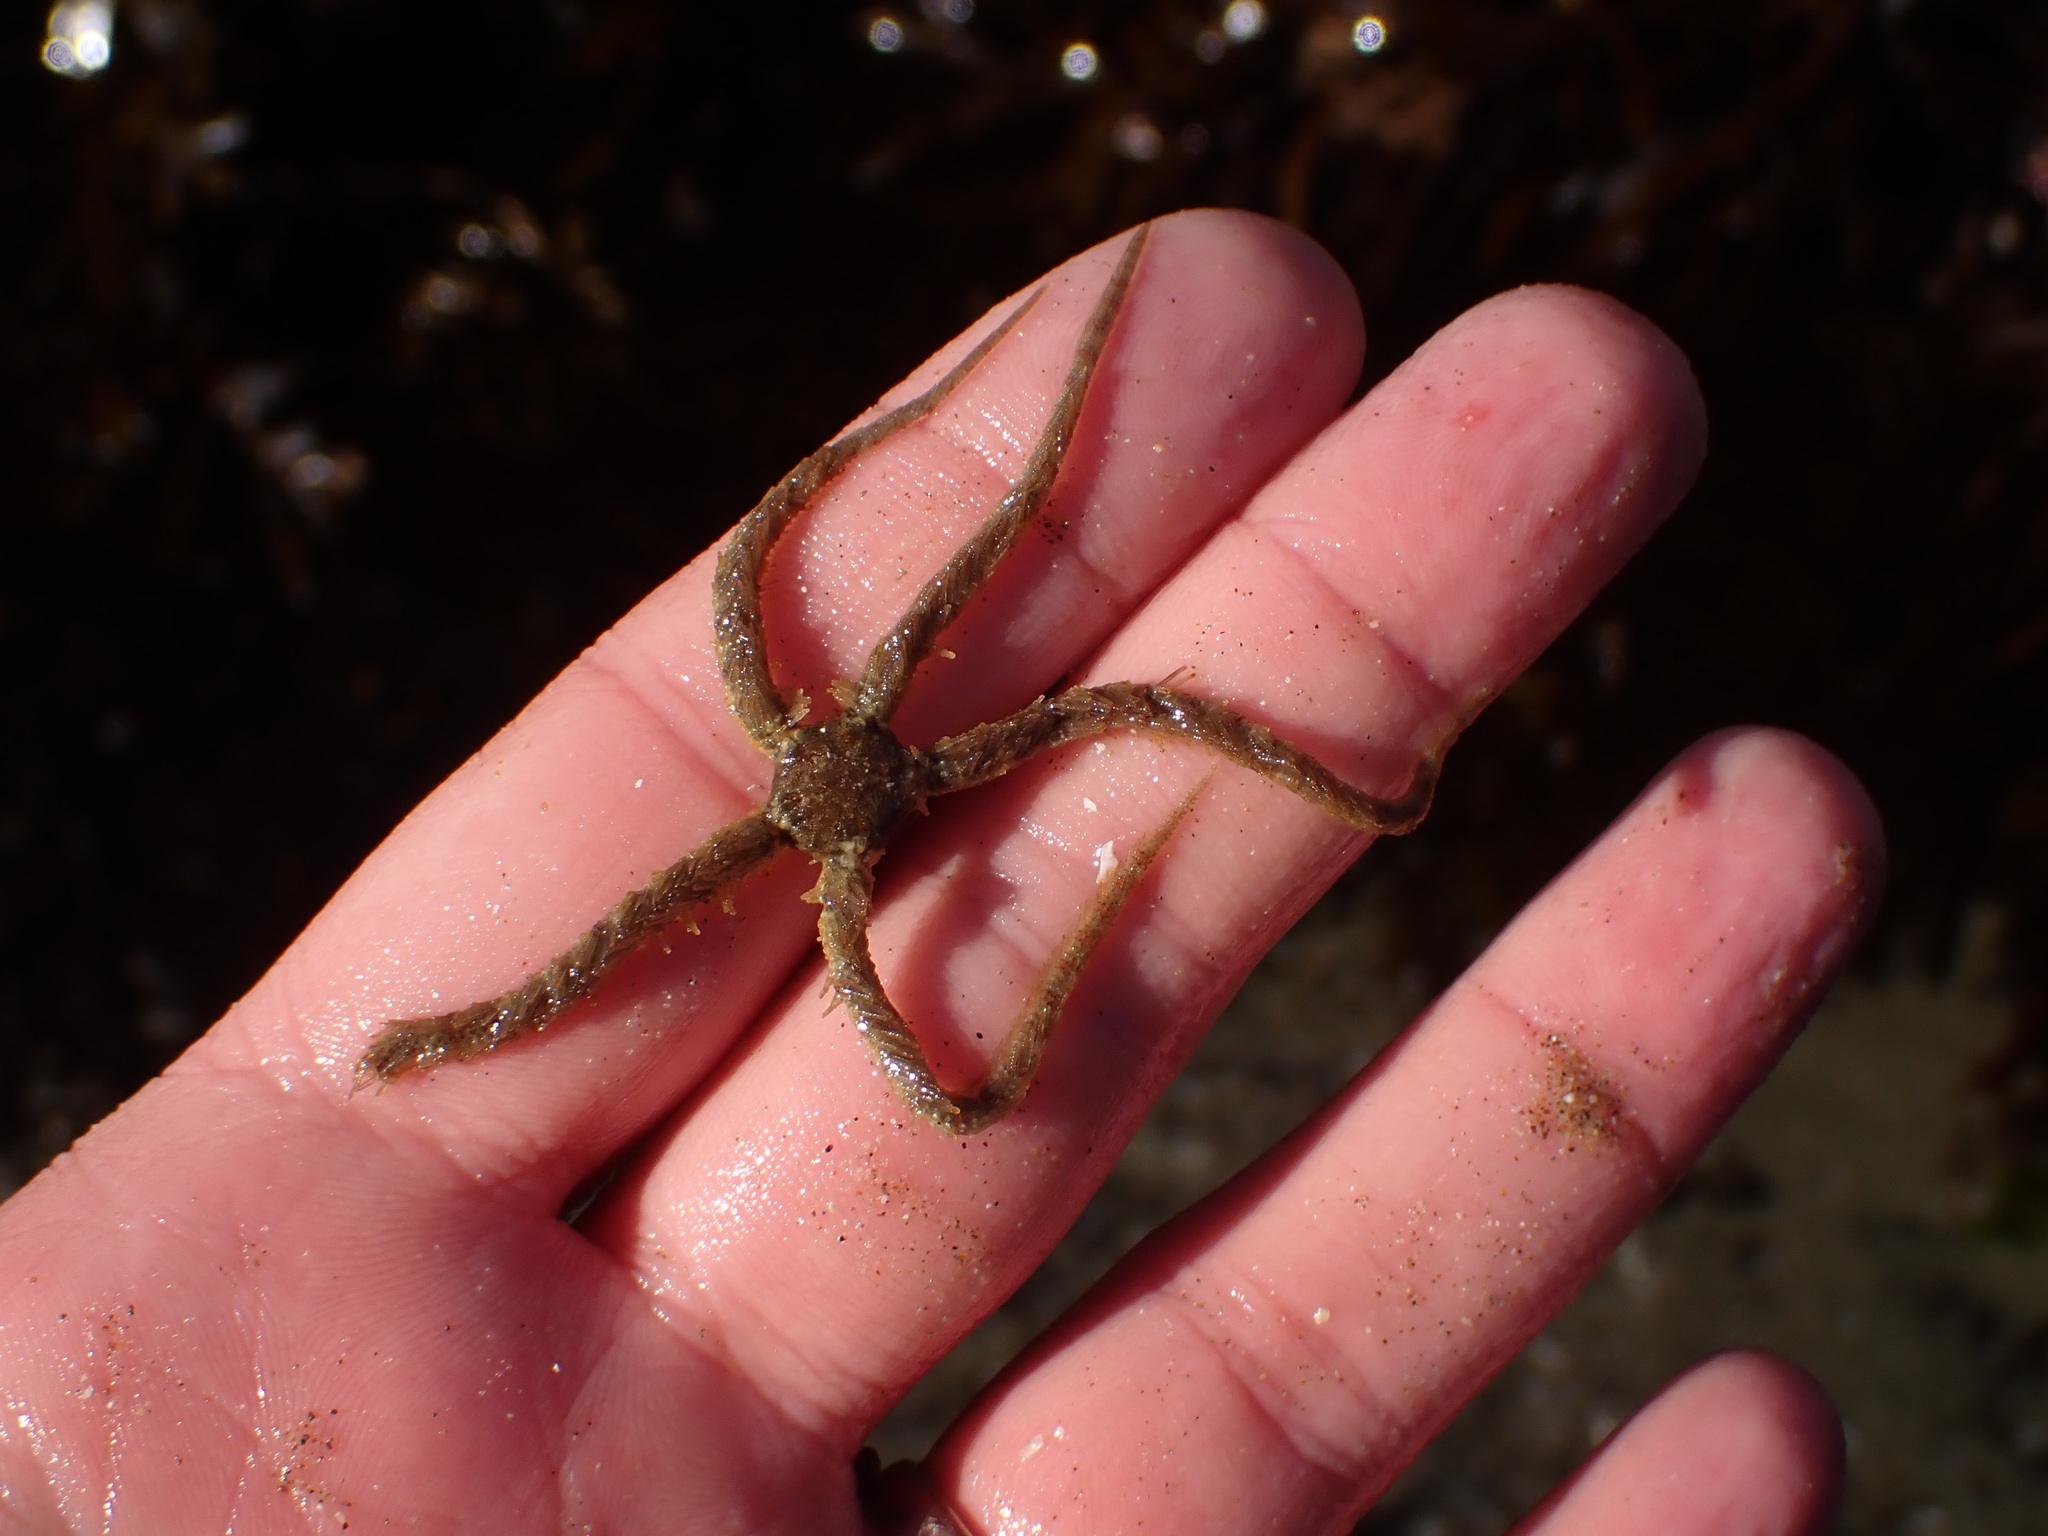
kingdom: Animalia
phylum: Echinodermata
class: Ophiuroidea
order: Amphilepidida
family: Ophiotrichidae
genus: Ophiothrix
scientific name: Ophiothrix spiculata
